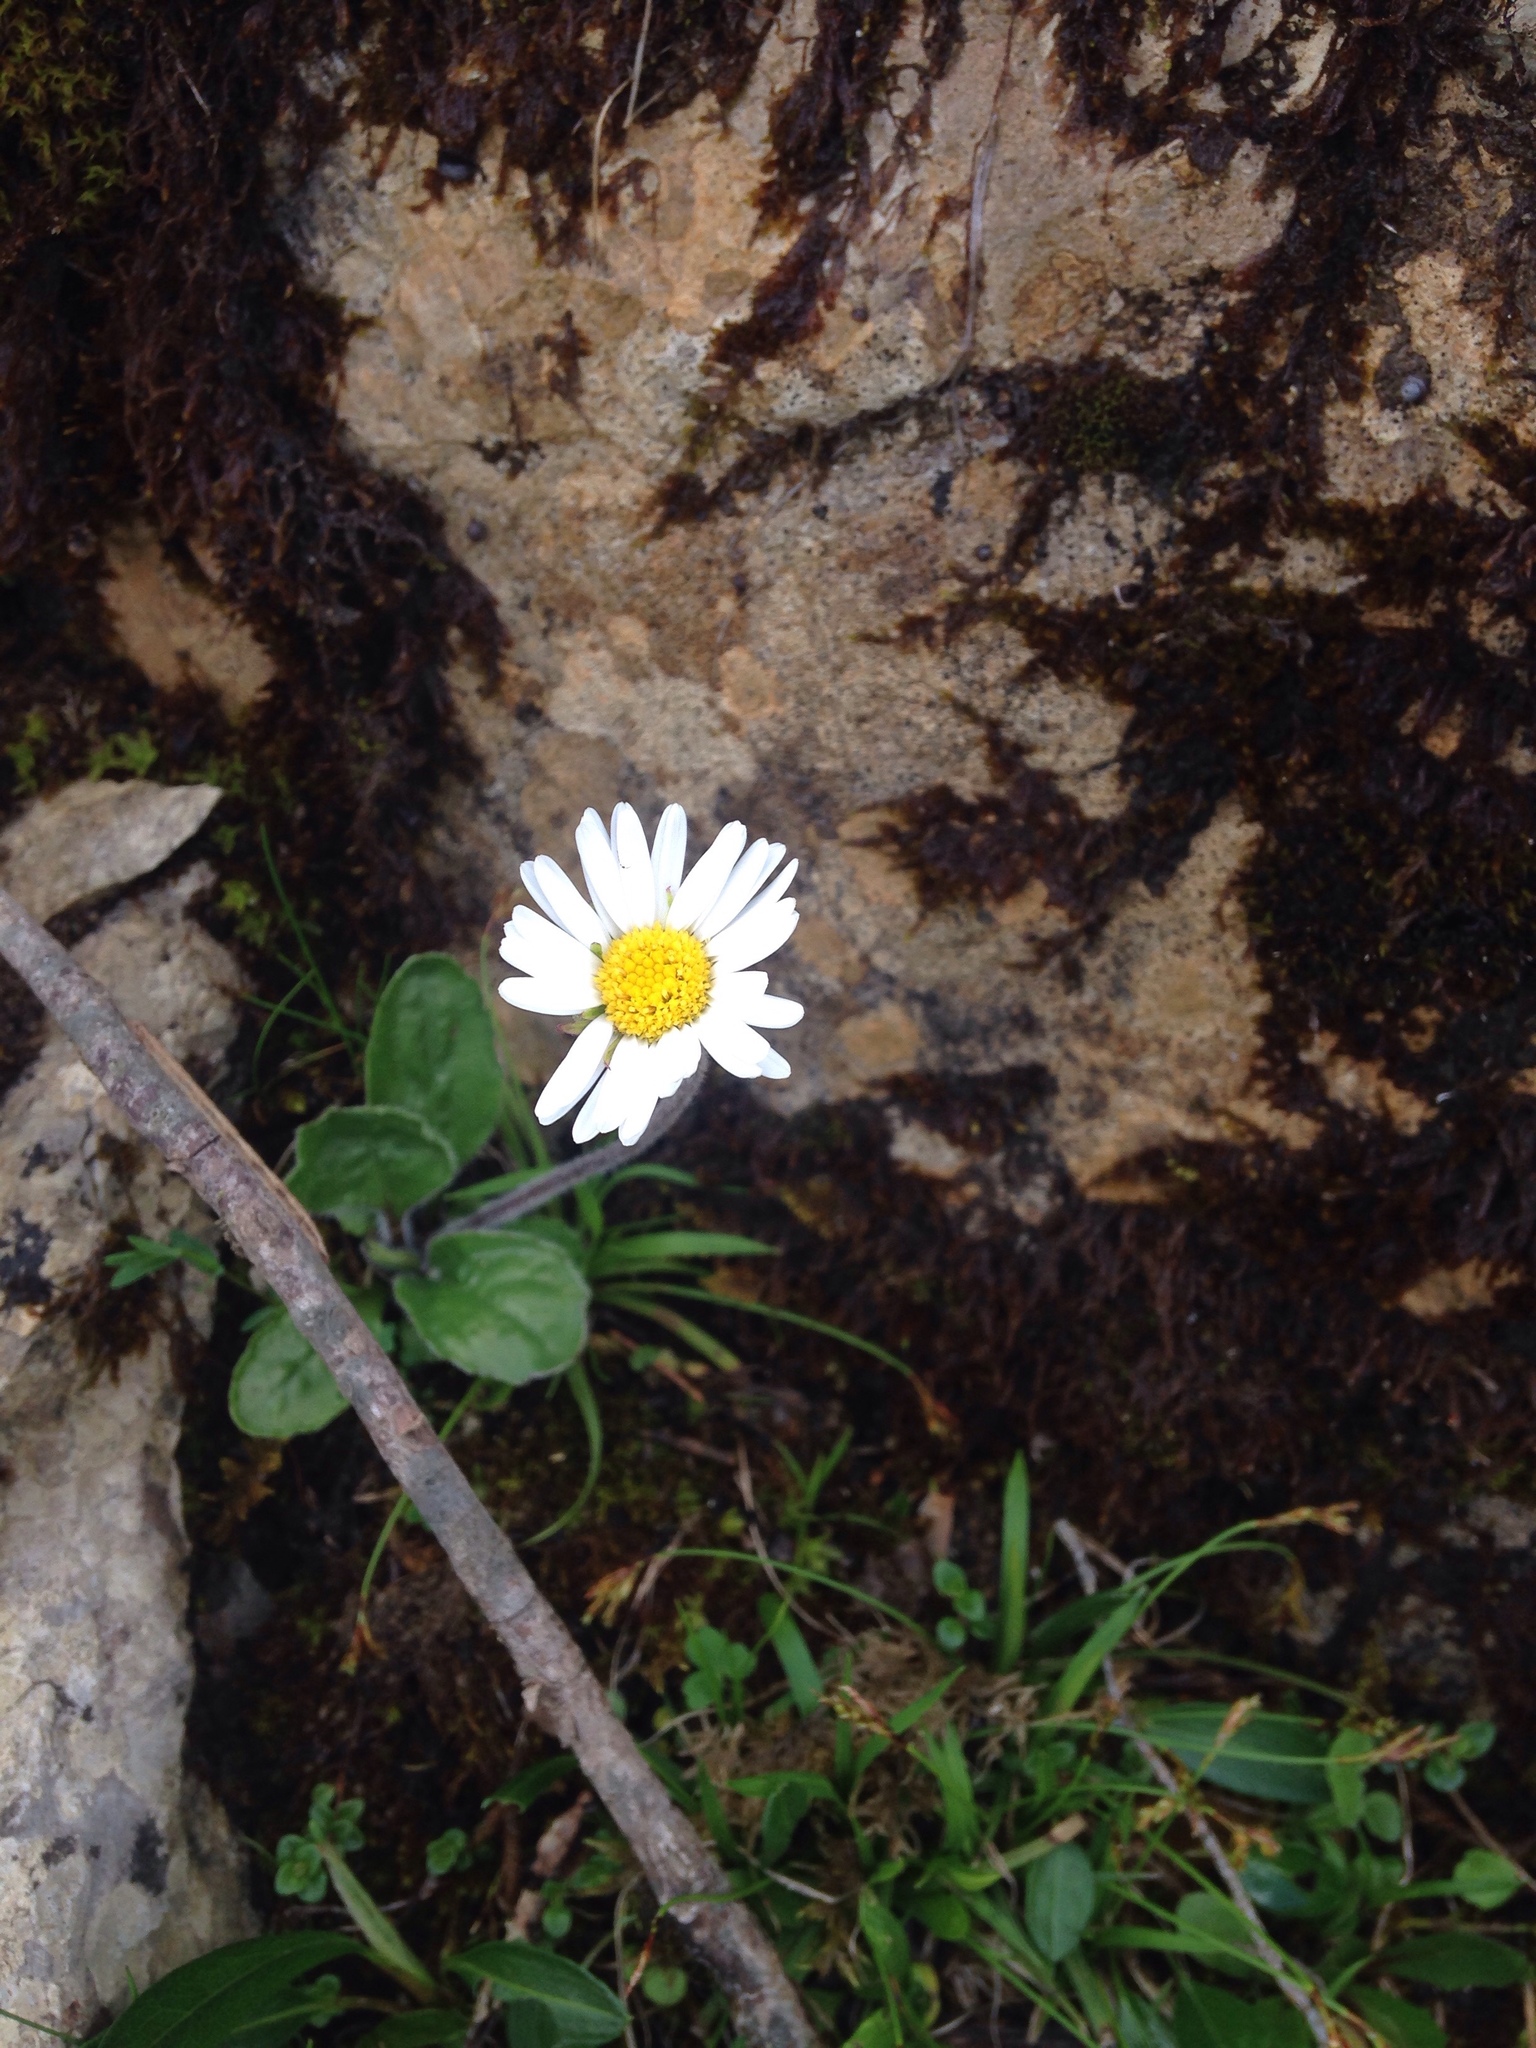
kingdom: Plantae
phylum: Tracheophyta
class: Magnoliopsida
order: Asterales
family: Asteraceae
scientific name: Asteraceae
